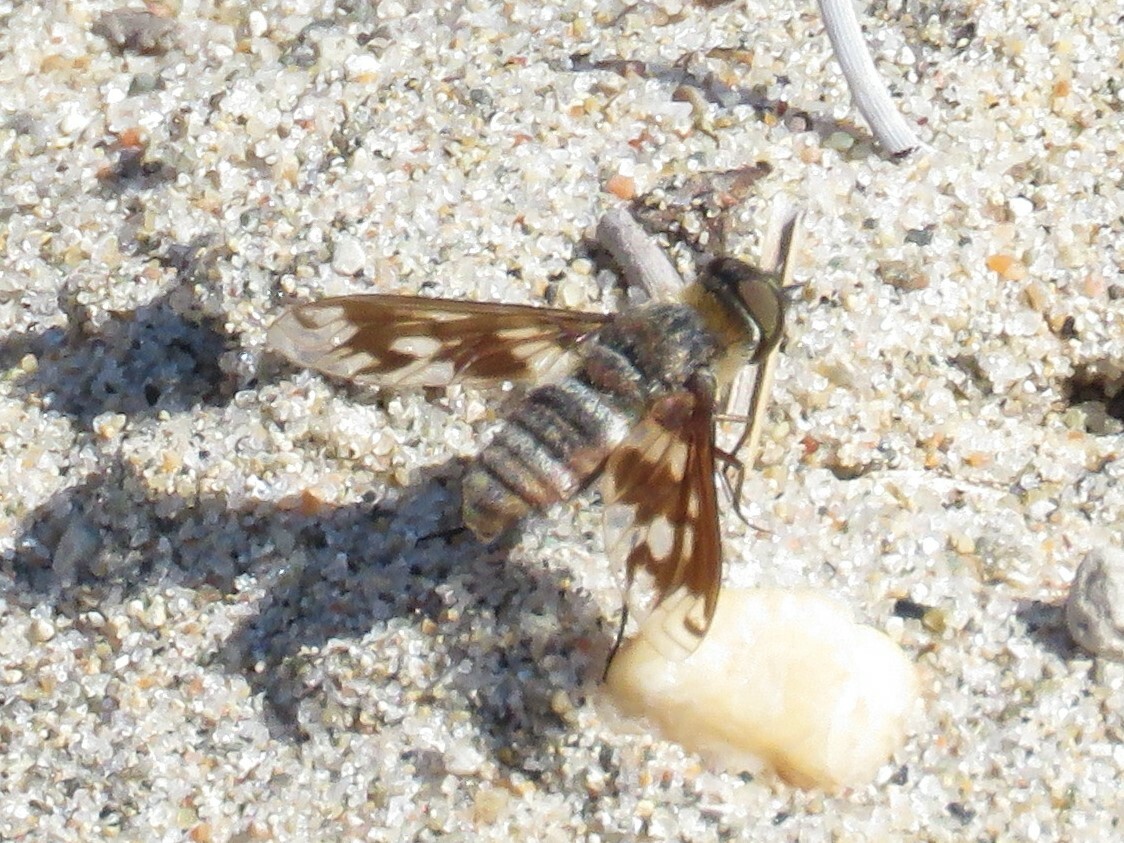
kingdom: Animalia
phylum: Arthropoda
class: Insecta
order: Diptera
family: Bombyliidae
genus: Exoprosopa
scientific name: Exoprosopa fascipennis
